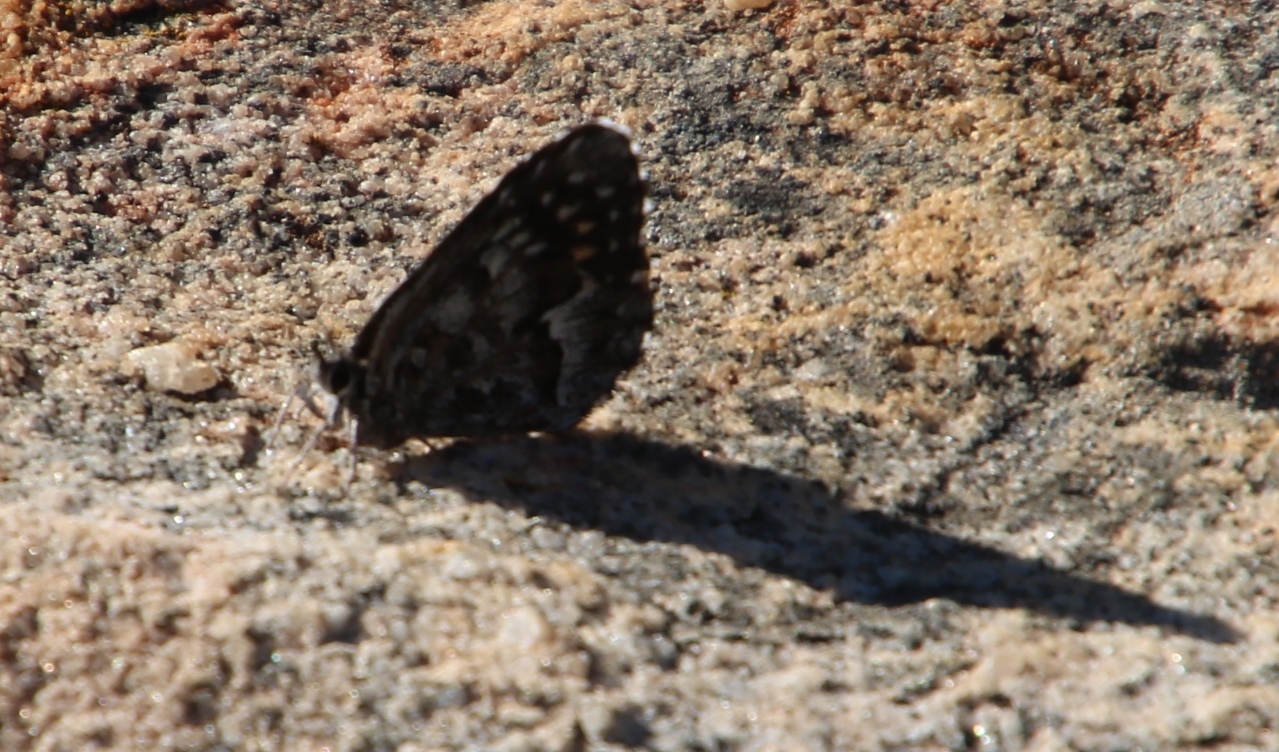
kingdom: Animalia
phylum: Arthropoda
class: Insecta
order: Lepidoptera
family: Lycaenidae
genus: Durbaniopsis
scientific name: Durbaniopsis saga
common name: Boland rocksitter
